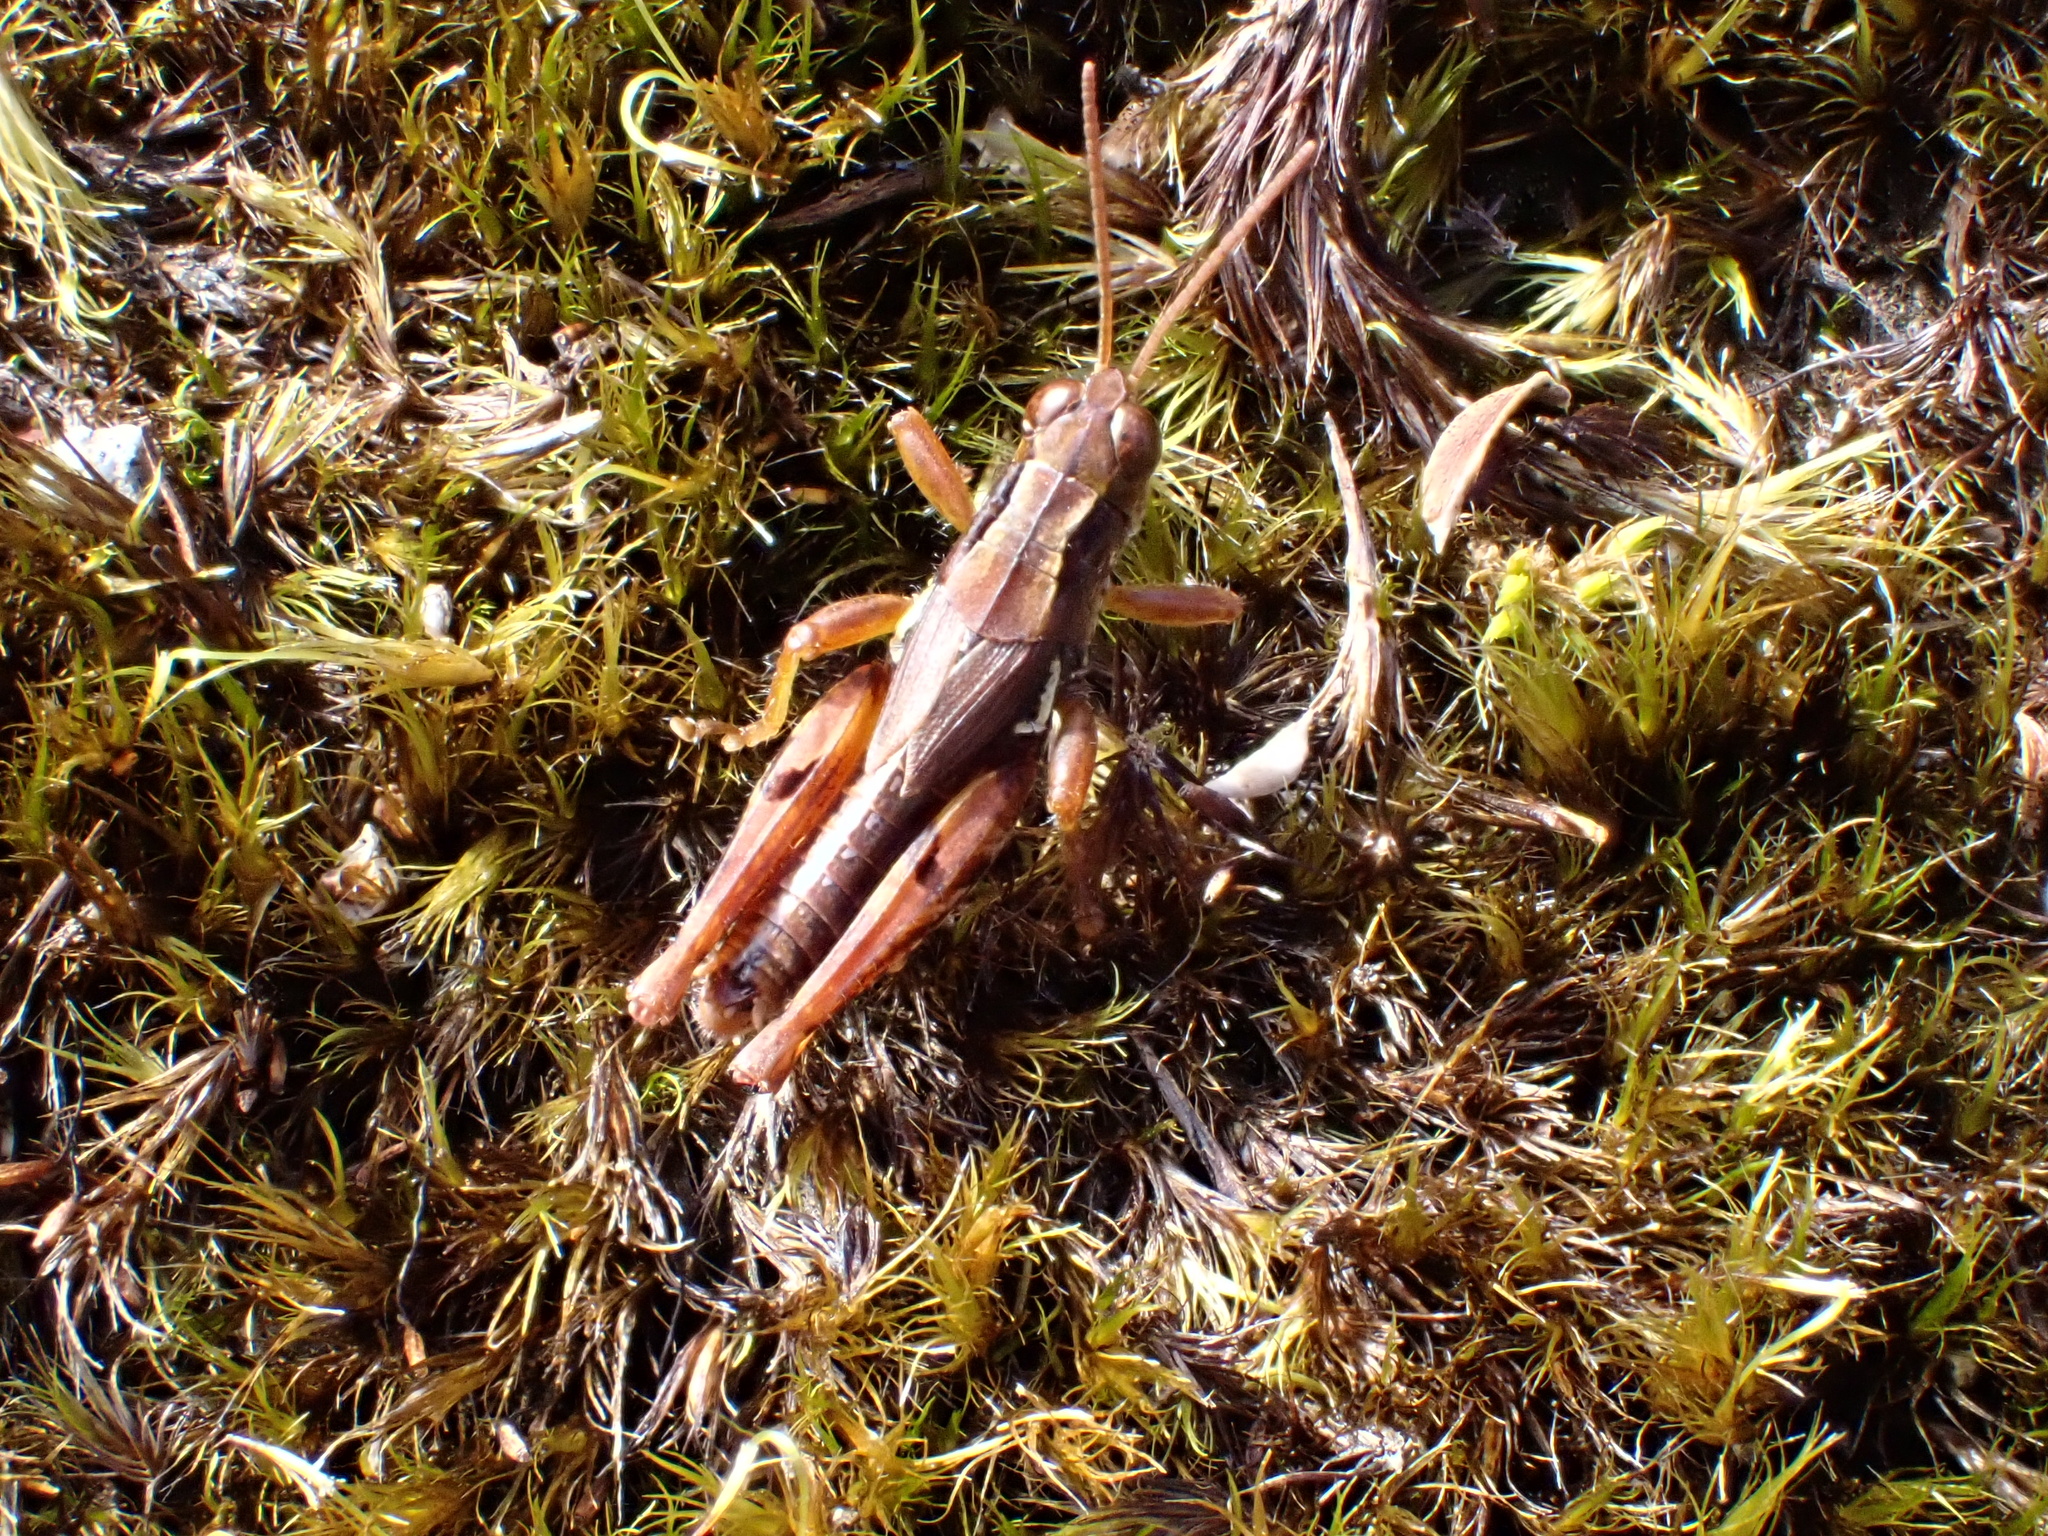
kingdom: Animalia
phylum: Arthropoda
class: Insecta
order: Orthoptera
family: Acrididae
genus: Phaulacridium
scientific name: Phaulacridium marginale
